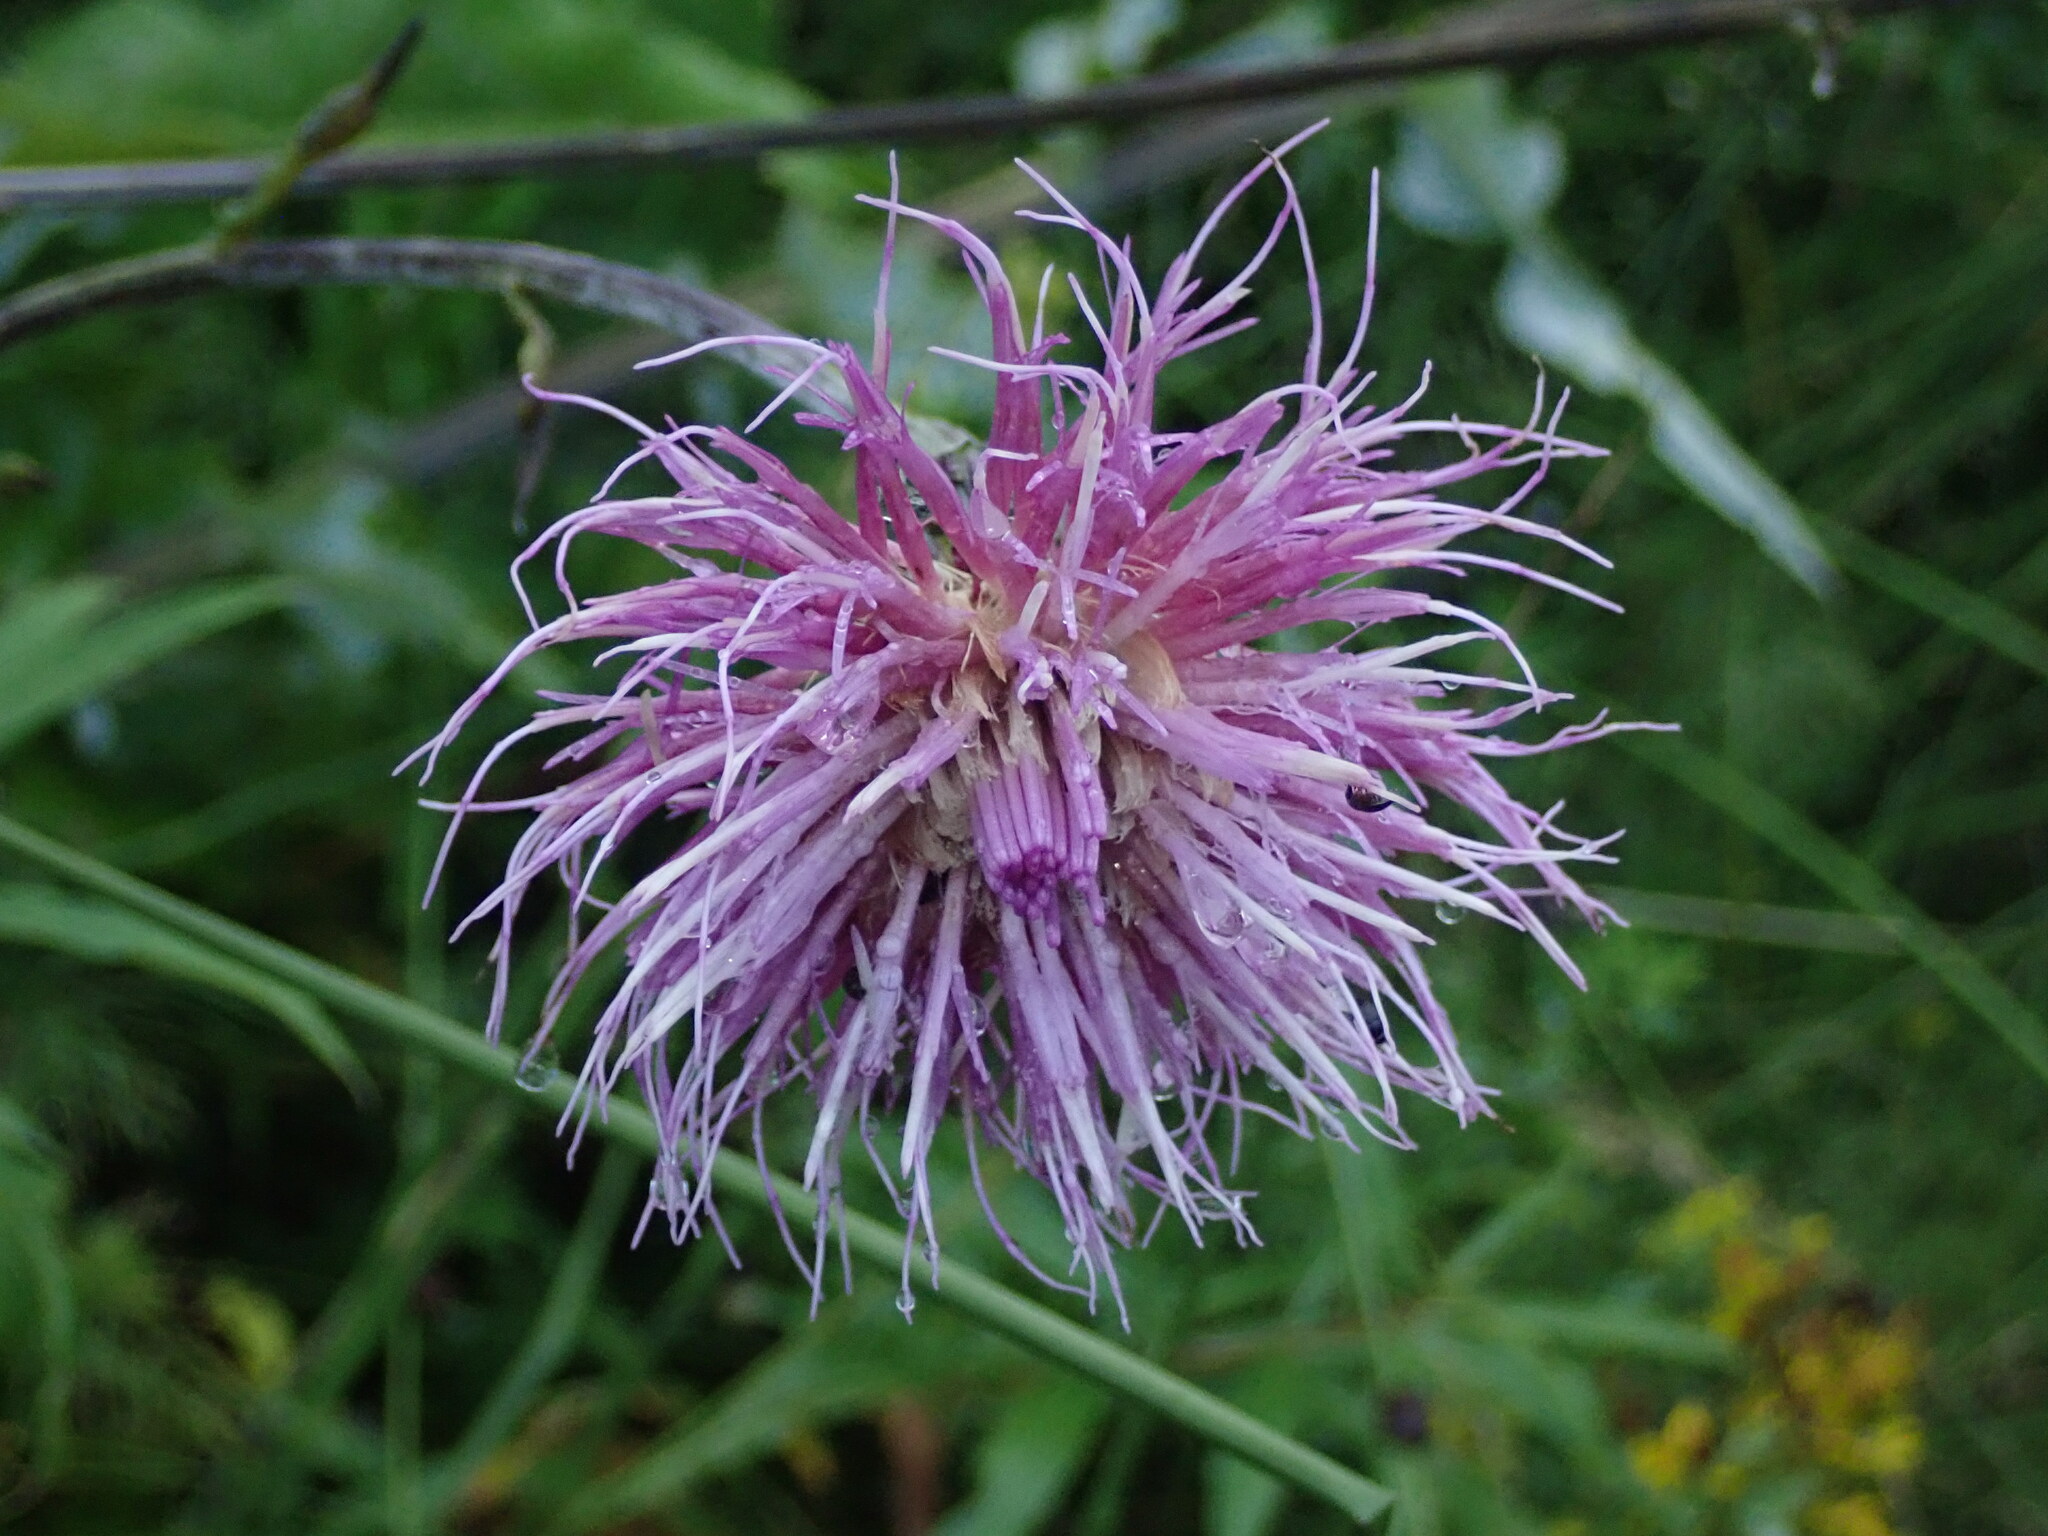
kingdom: Plantae
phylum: Tracheophyta
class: Magnoliopsida
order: Asterales
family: Asteraceae
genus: Cirsium
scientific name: Cirsium heterophyllum
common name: Melancholy thistle
